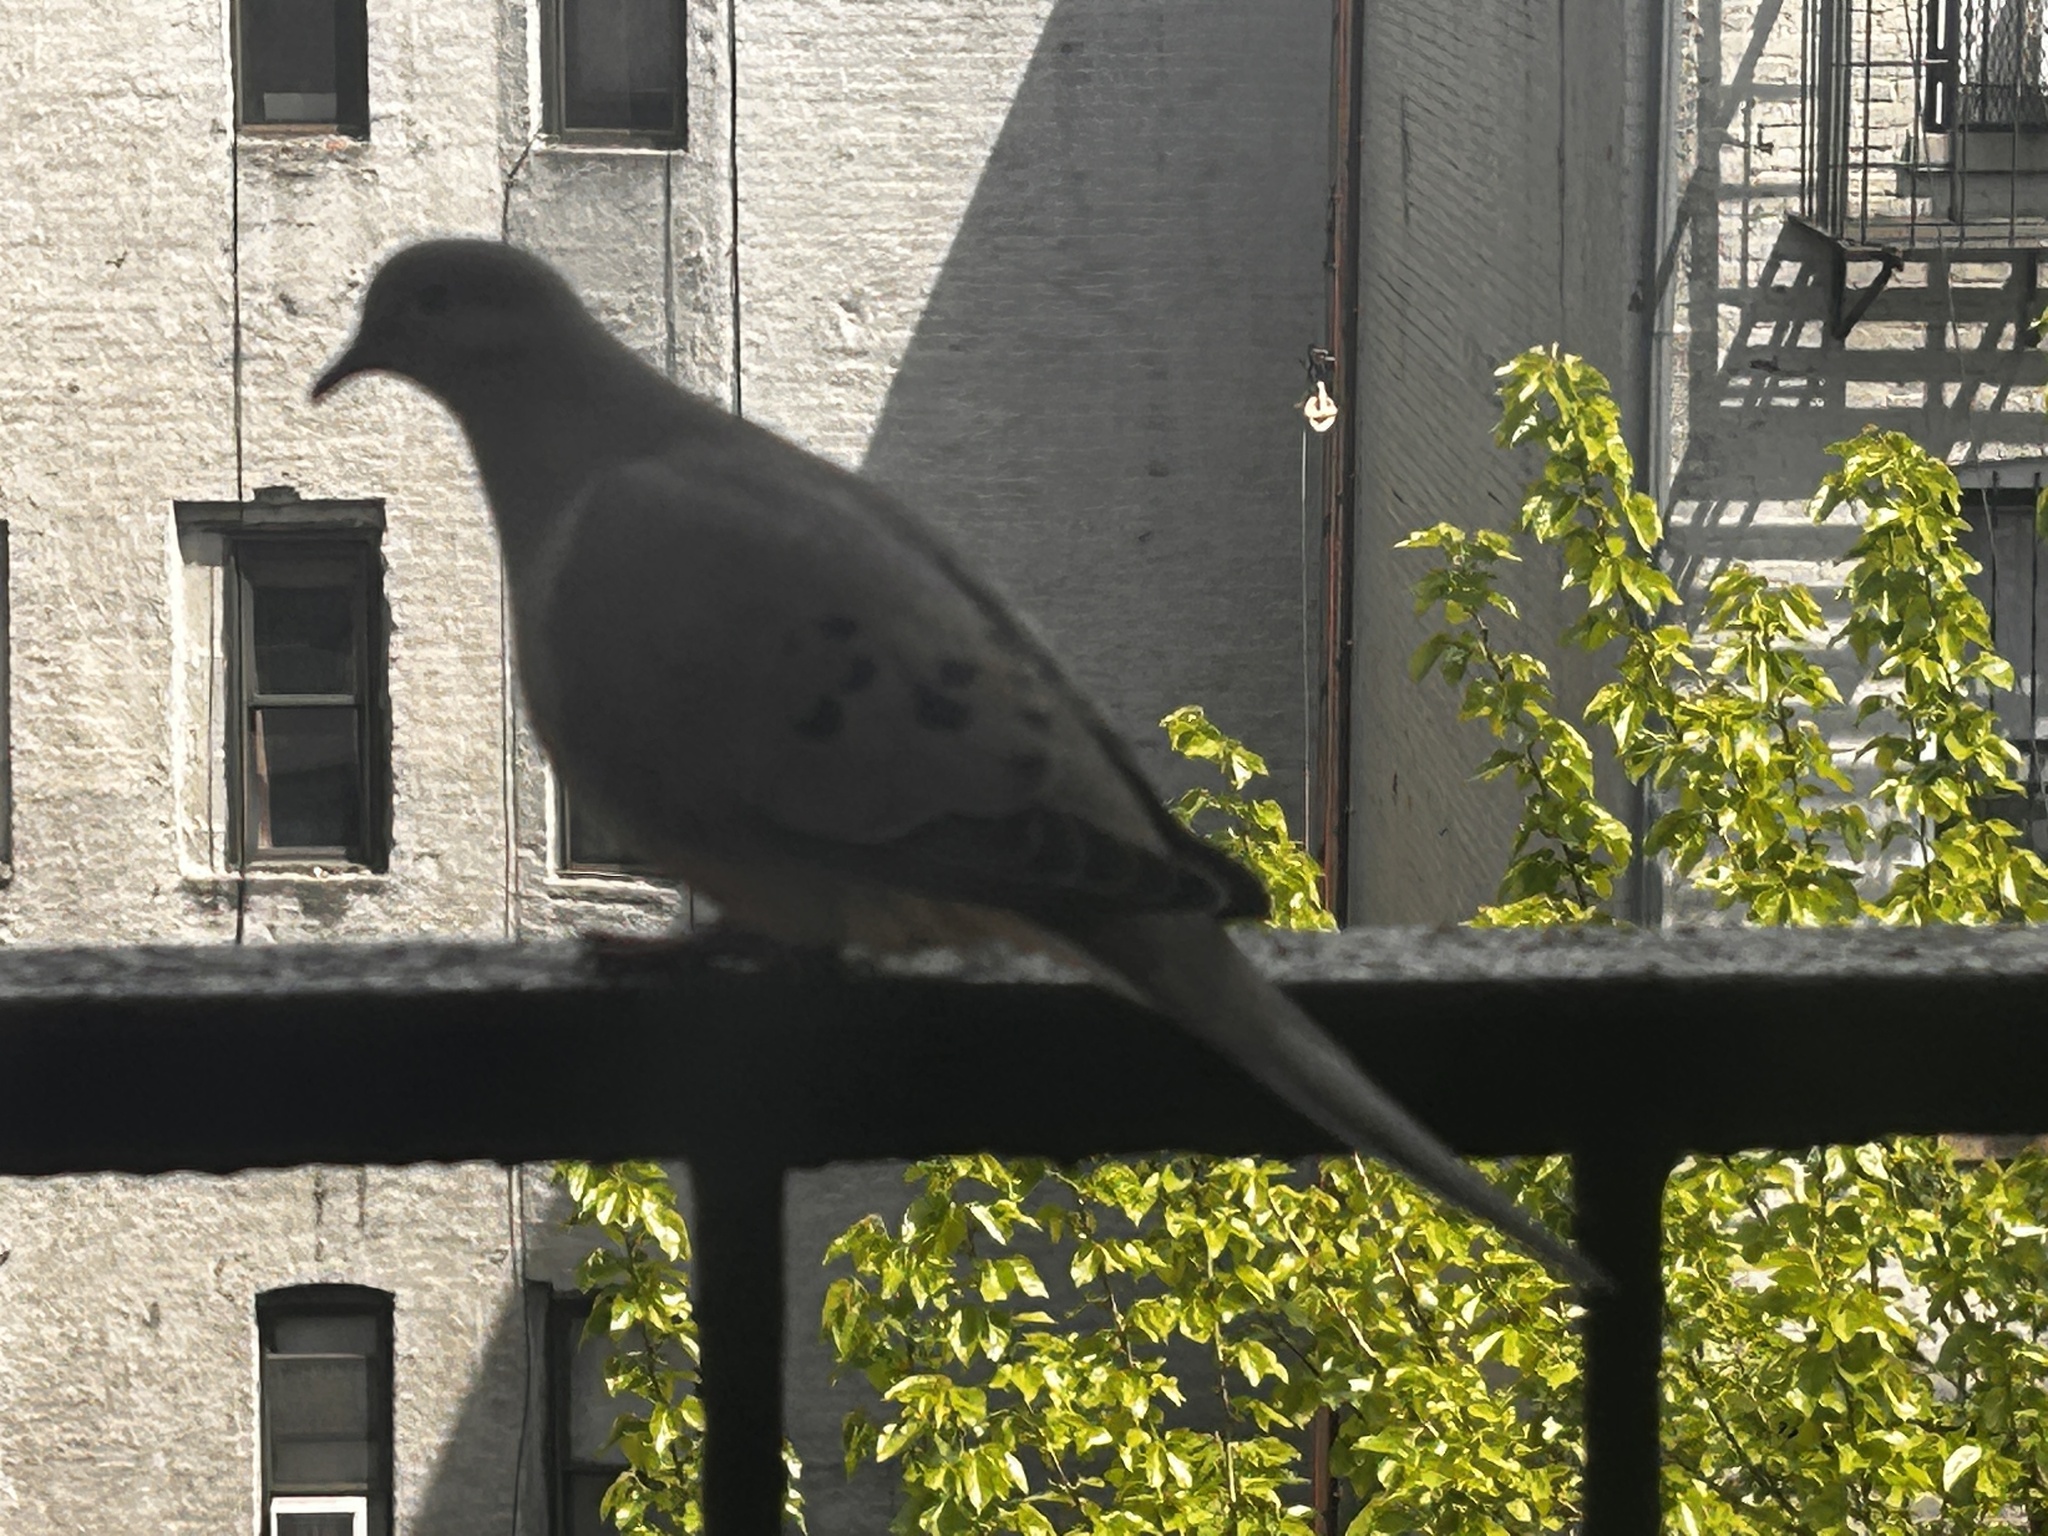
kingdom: Animalia
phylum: Chordata
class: Aves
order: Columbiformes
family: Columbidae
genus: Zenaida
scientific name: Zenaida macroura
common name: Mourning dove
